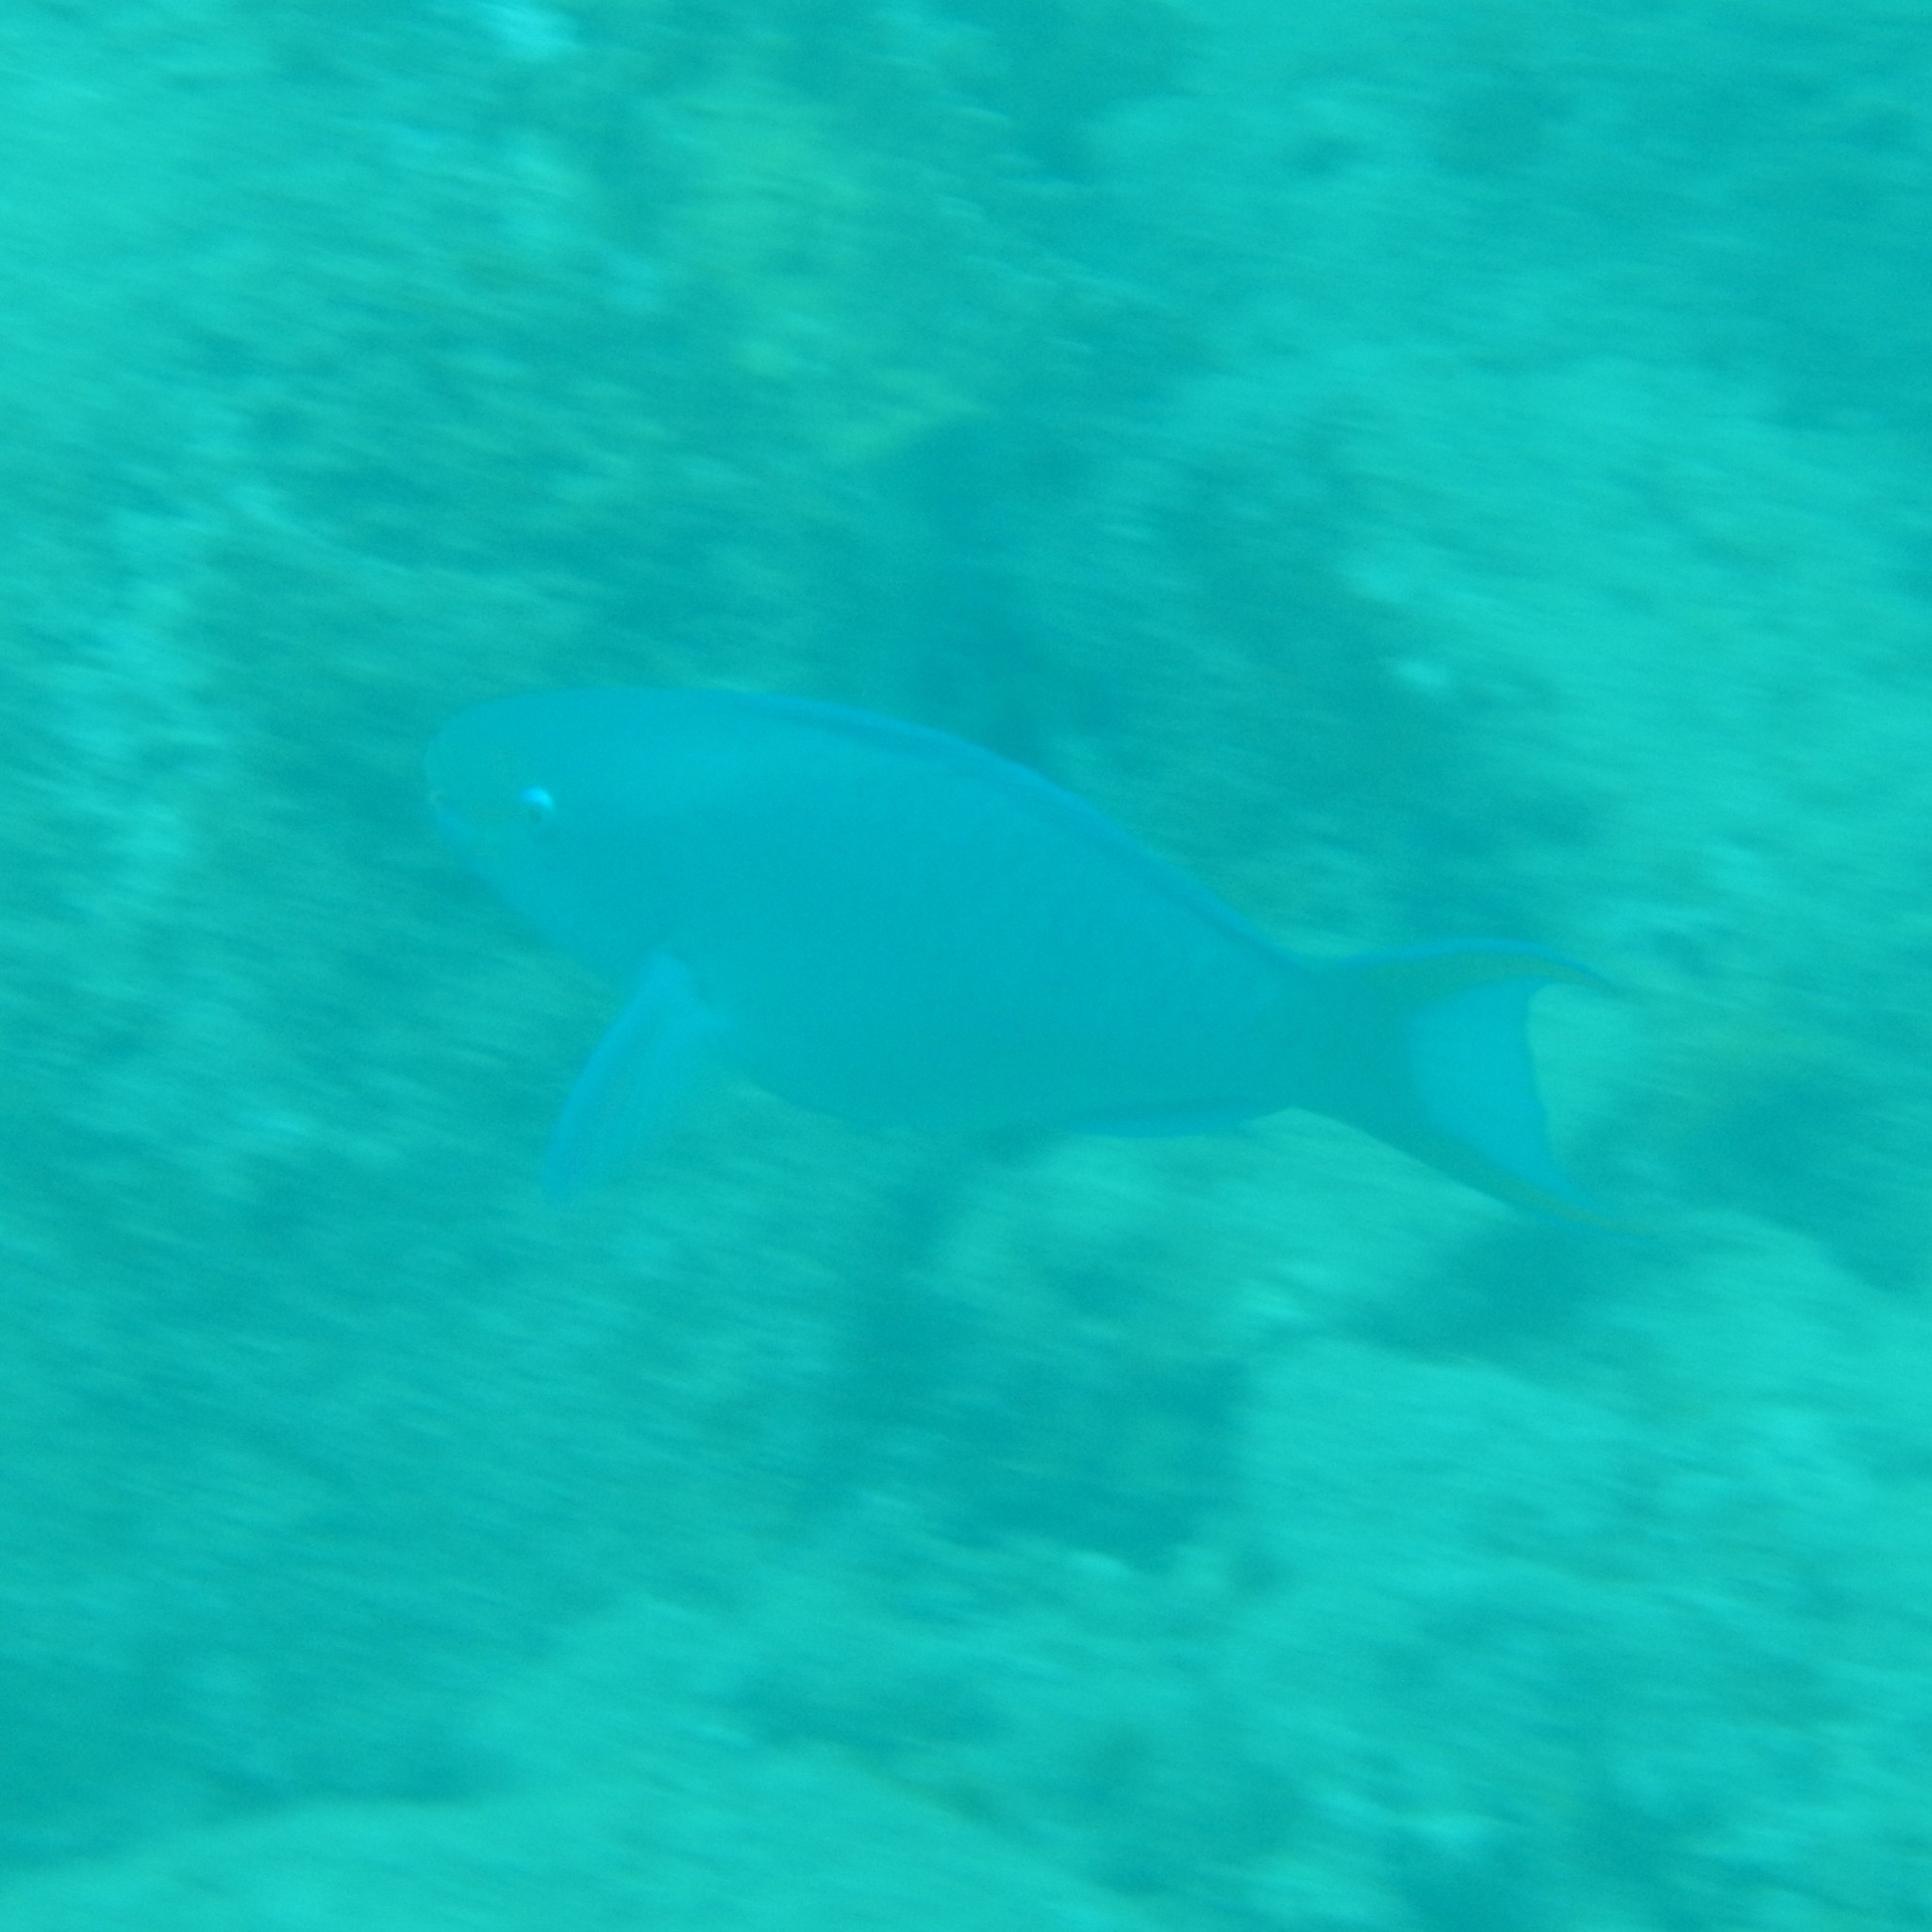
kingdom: Animalia
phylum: Chordata
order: Perciformes
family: Scaridae
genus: Scarus
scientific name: Scarus vetula
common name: Queen parrotfish
